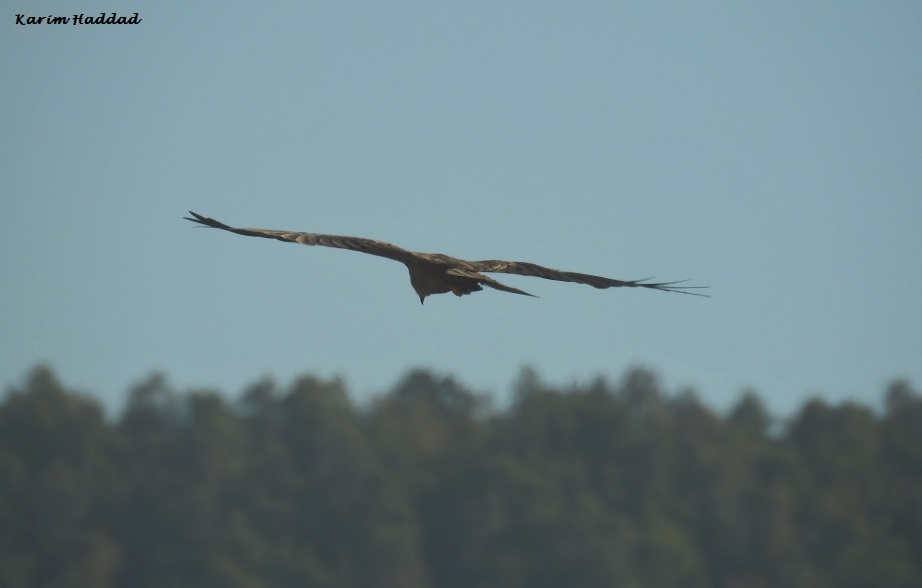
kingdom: Animalia
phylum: Chordata
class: Aves
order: Accipitriformes
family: Accipitridae
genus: Milvus
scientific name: Milvus migrans
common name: Black kite
